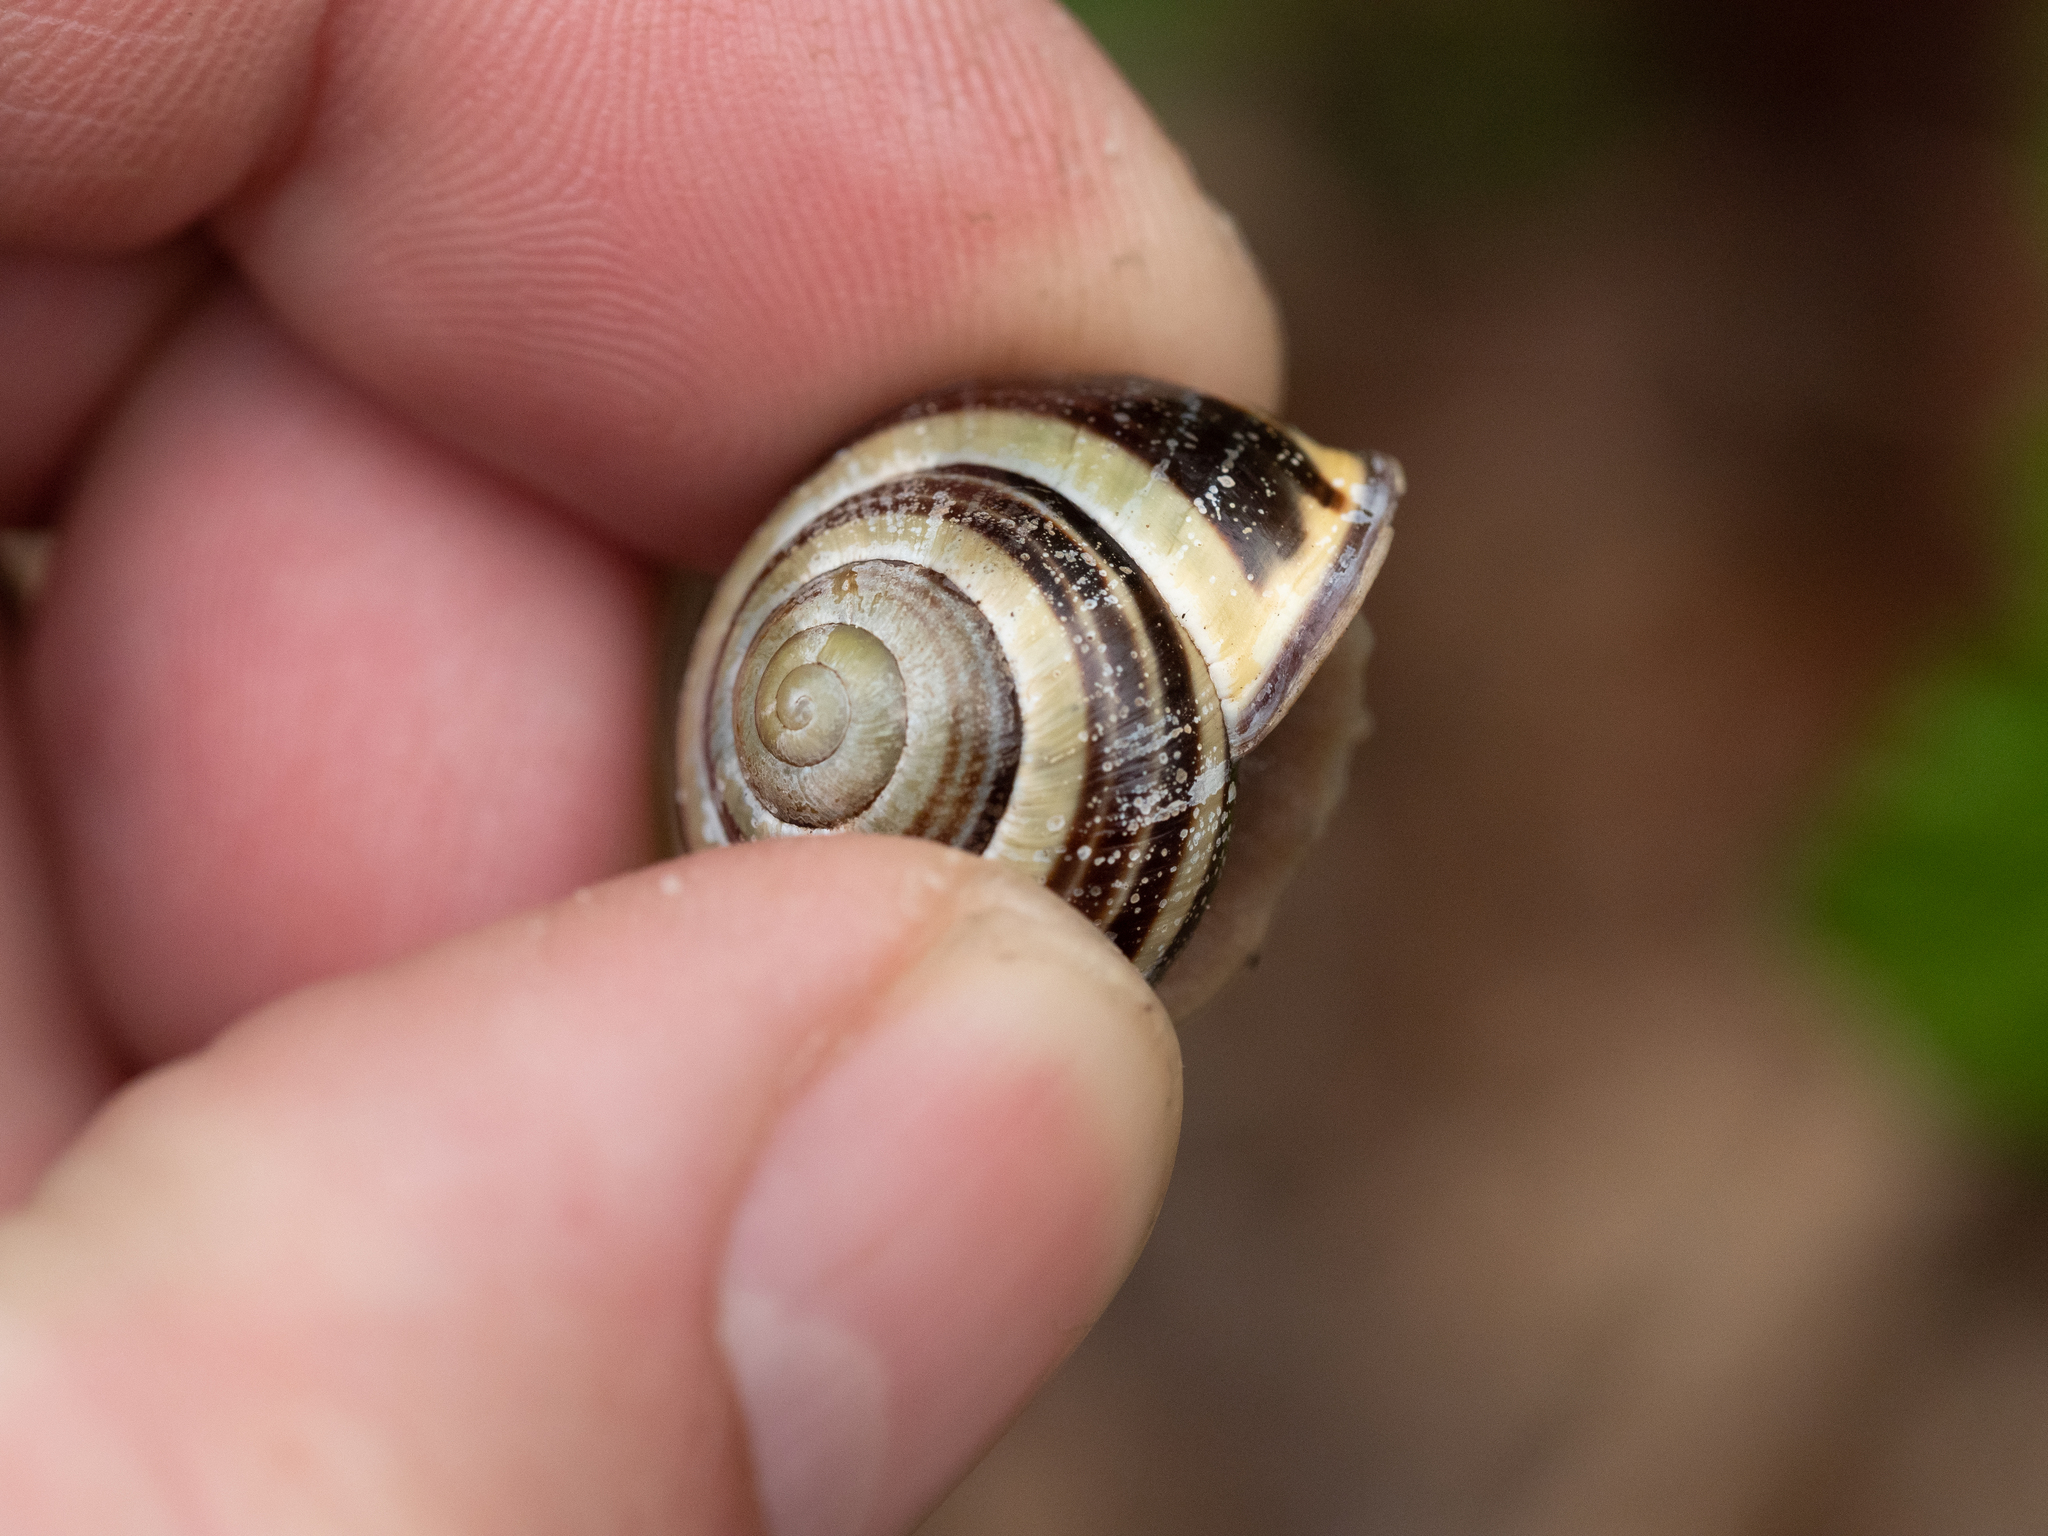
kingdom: Animalia
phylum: Mollusca
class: Gastropoda
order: Stylommatophora
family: Helicidae
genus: Cepaea
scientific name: Cepaea nemoralis
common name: Grovesnail
